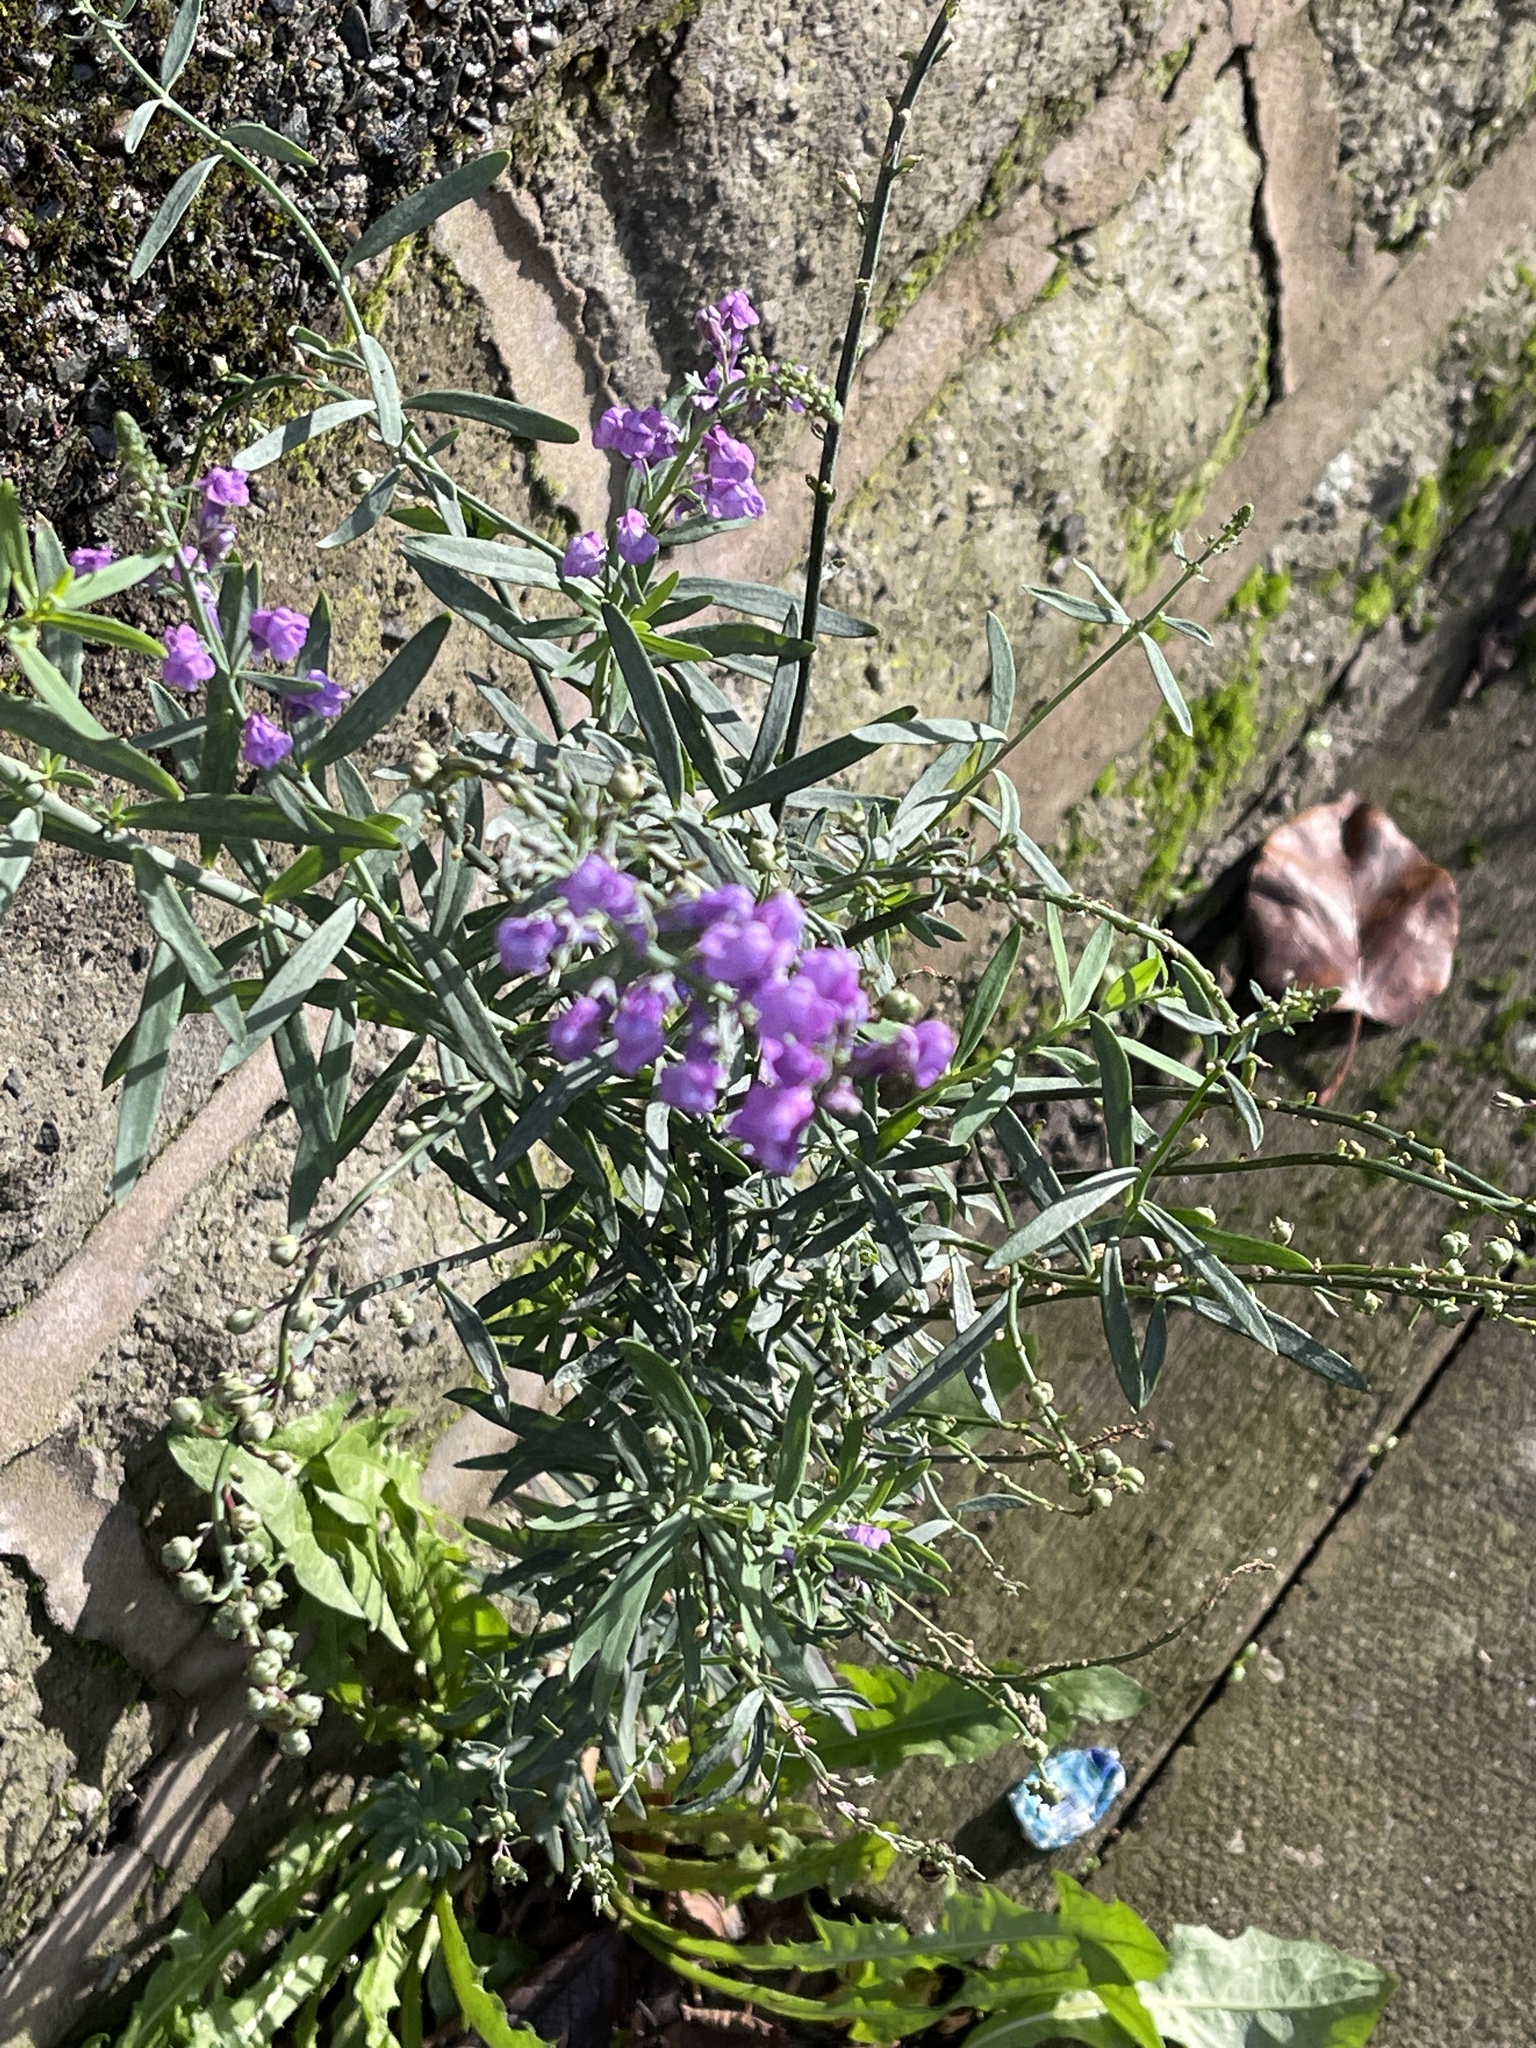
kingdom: Plantae
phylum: Tracheophyta
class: Magnoliopsida
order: Lamiales
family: Plantaginaceae
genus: Linaria
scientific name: Linaria purpurea
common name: Purple toadflax
